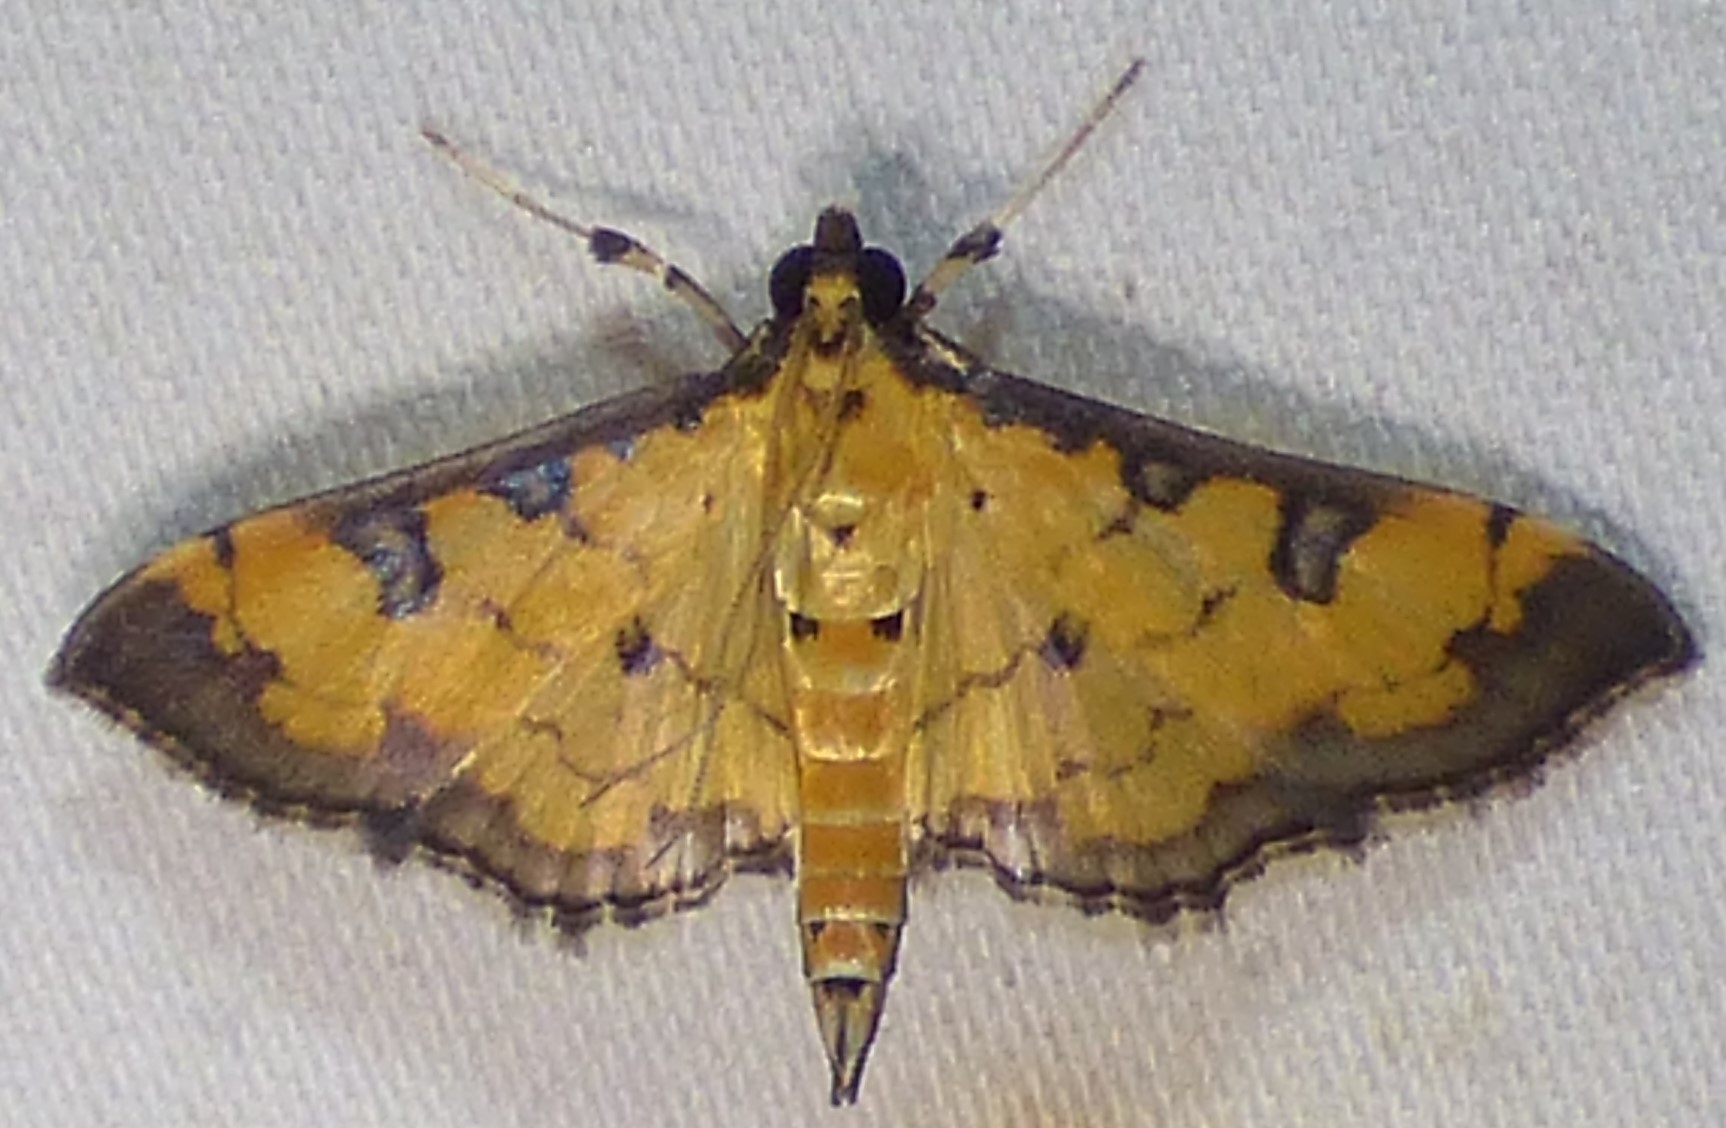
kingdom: Animalia
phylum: Arthropoda
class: Insecta
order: Lepidoptera
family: Crambidae
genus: Ategumia
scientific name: Ategumia ebulealis
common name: Moth
